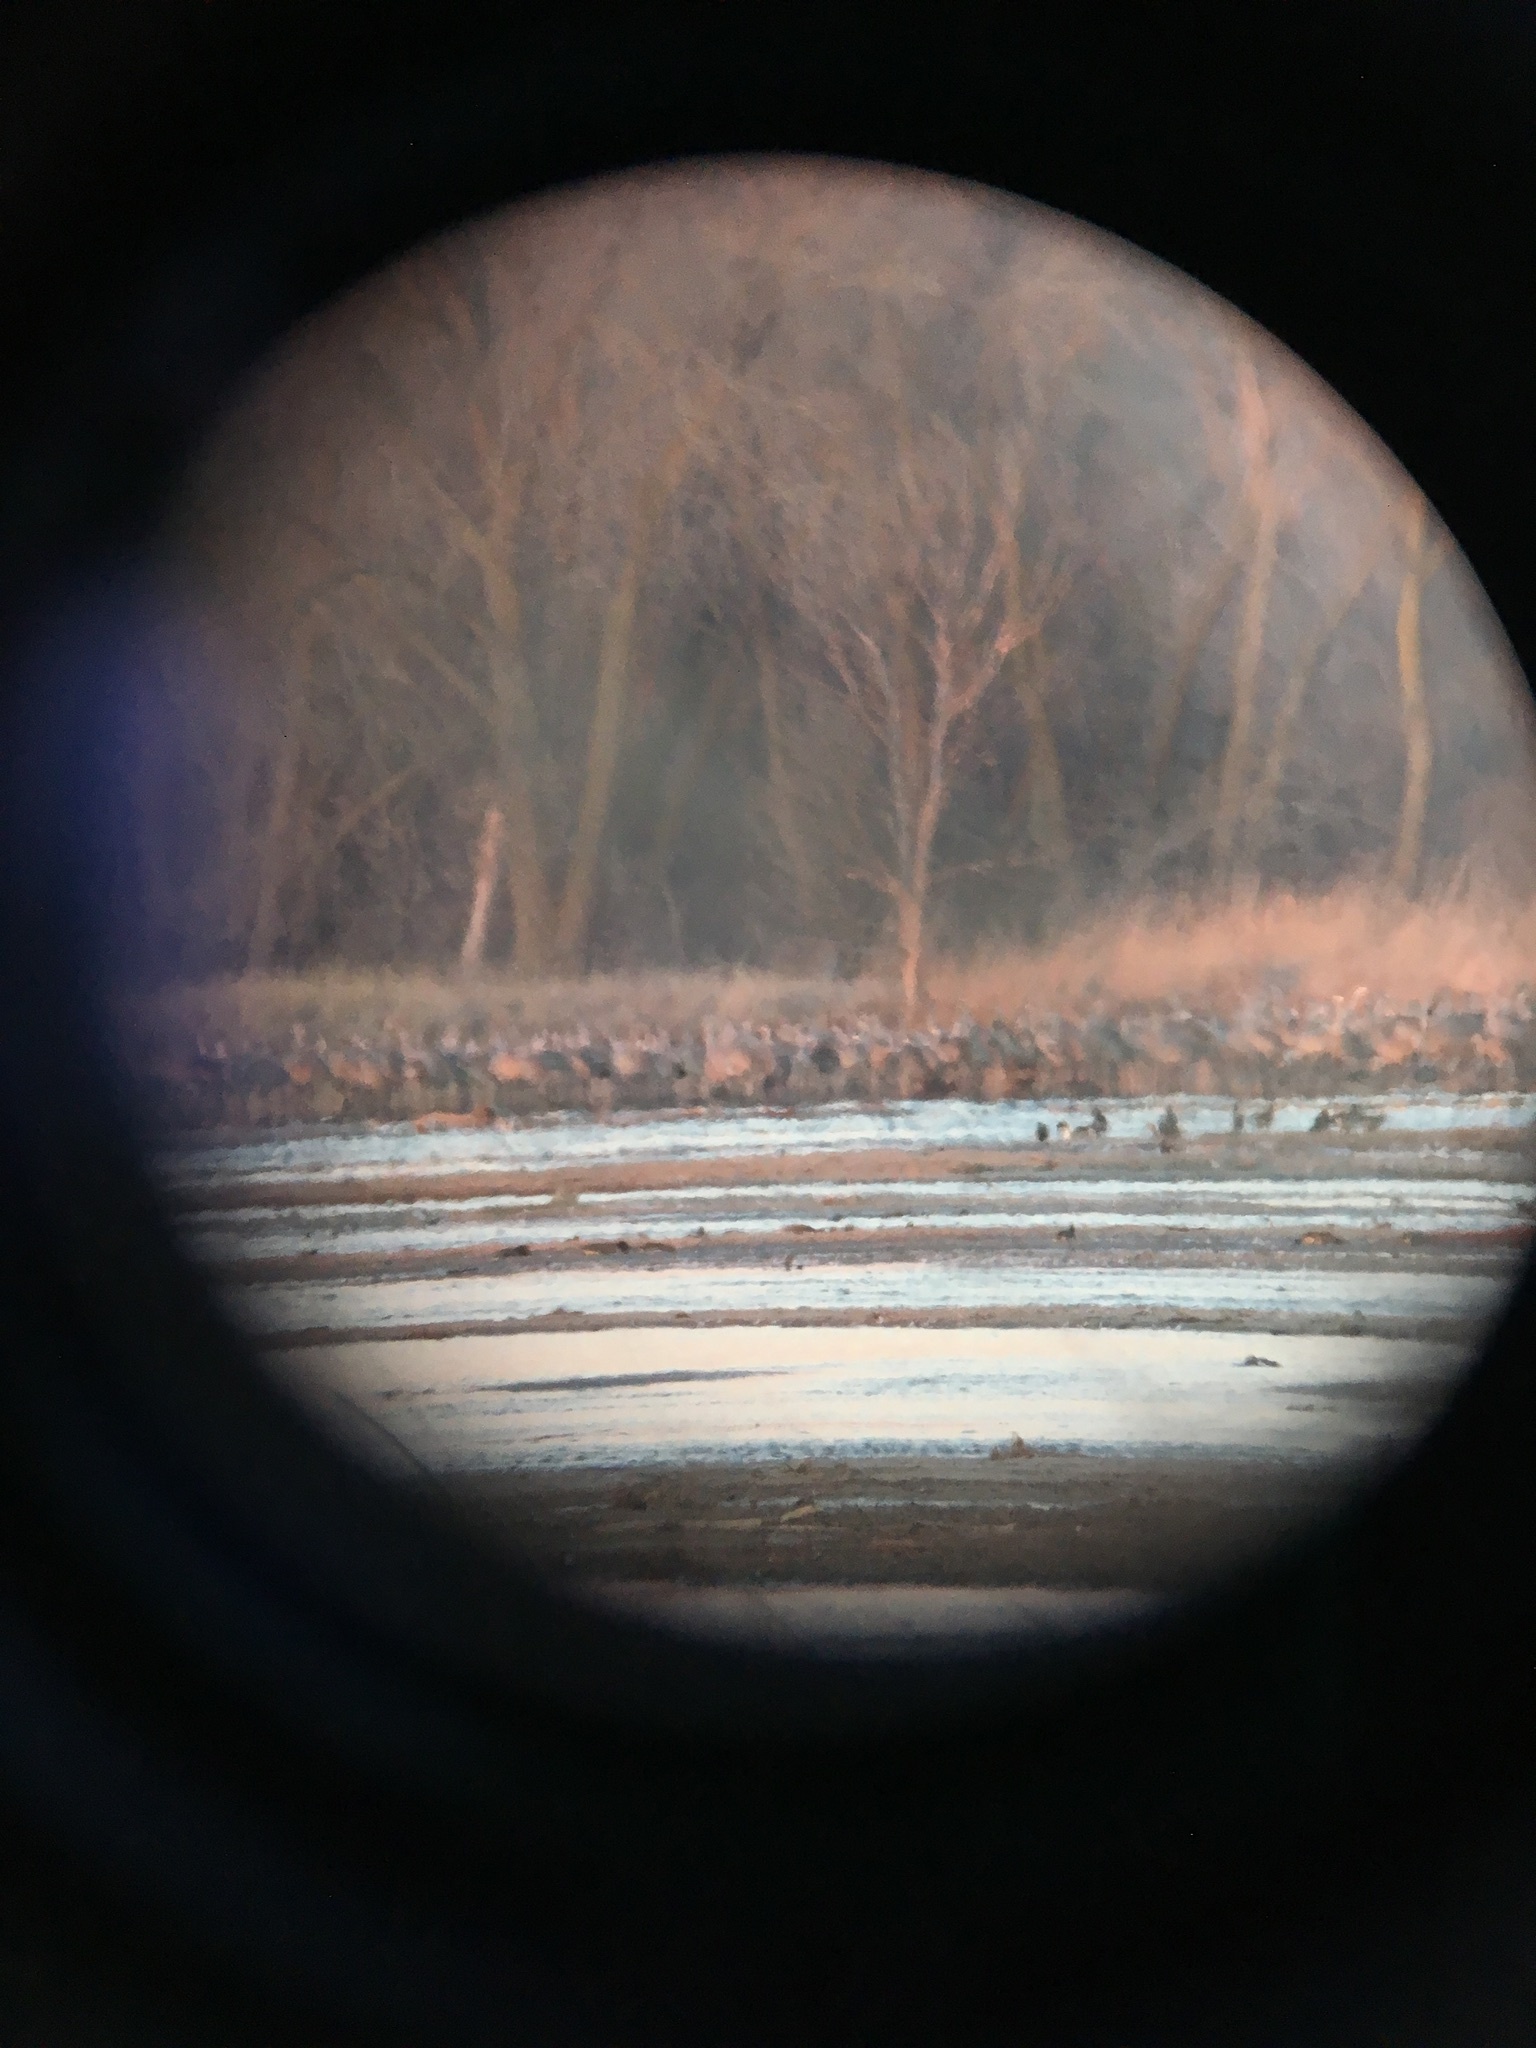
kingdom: Animalia
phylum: Chordata
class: Aves
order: Gruiformes
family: Gruidae
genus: Grus
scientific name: Grus canadensis
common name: Sandhill crane
